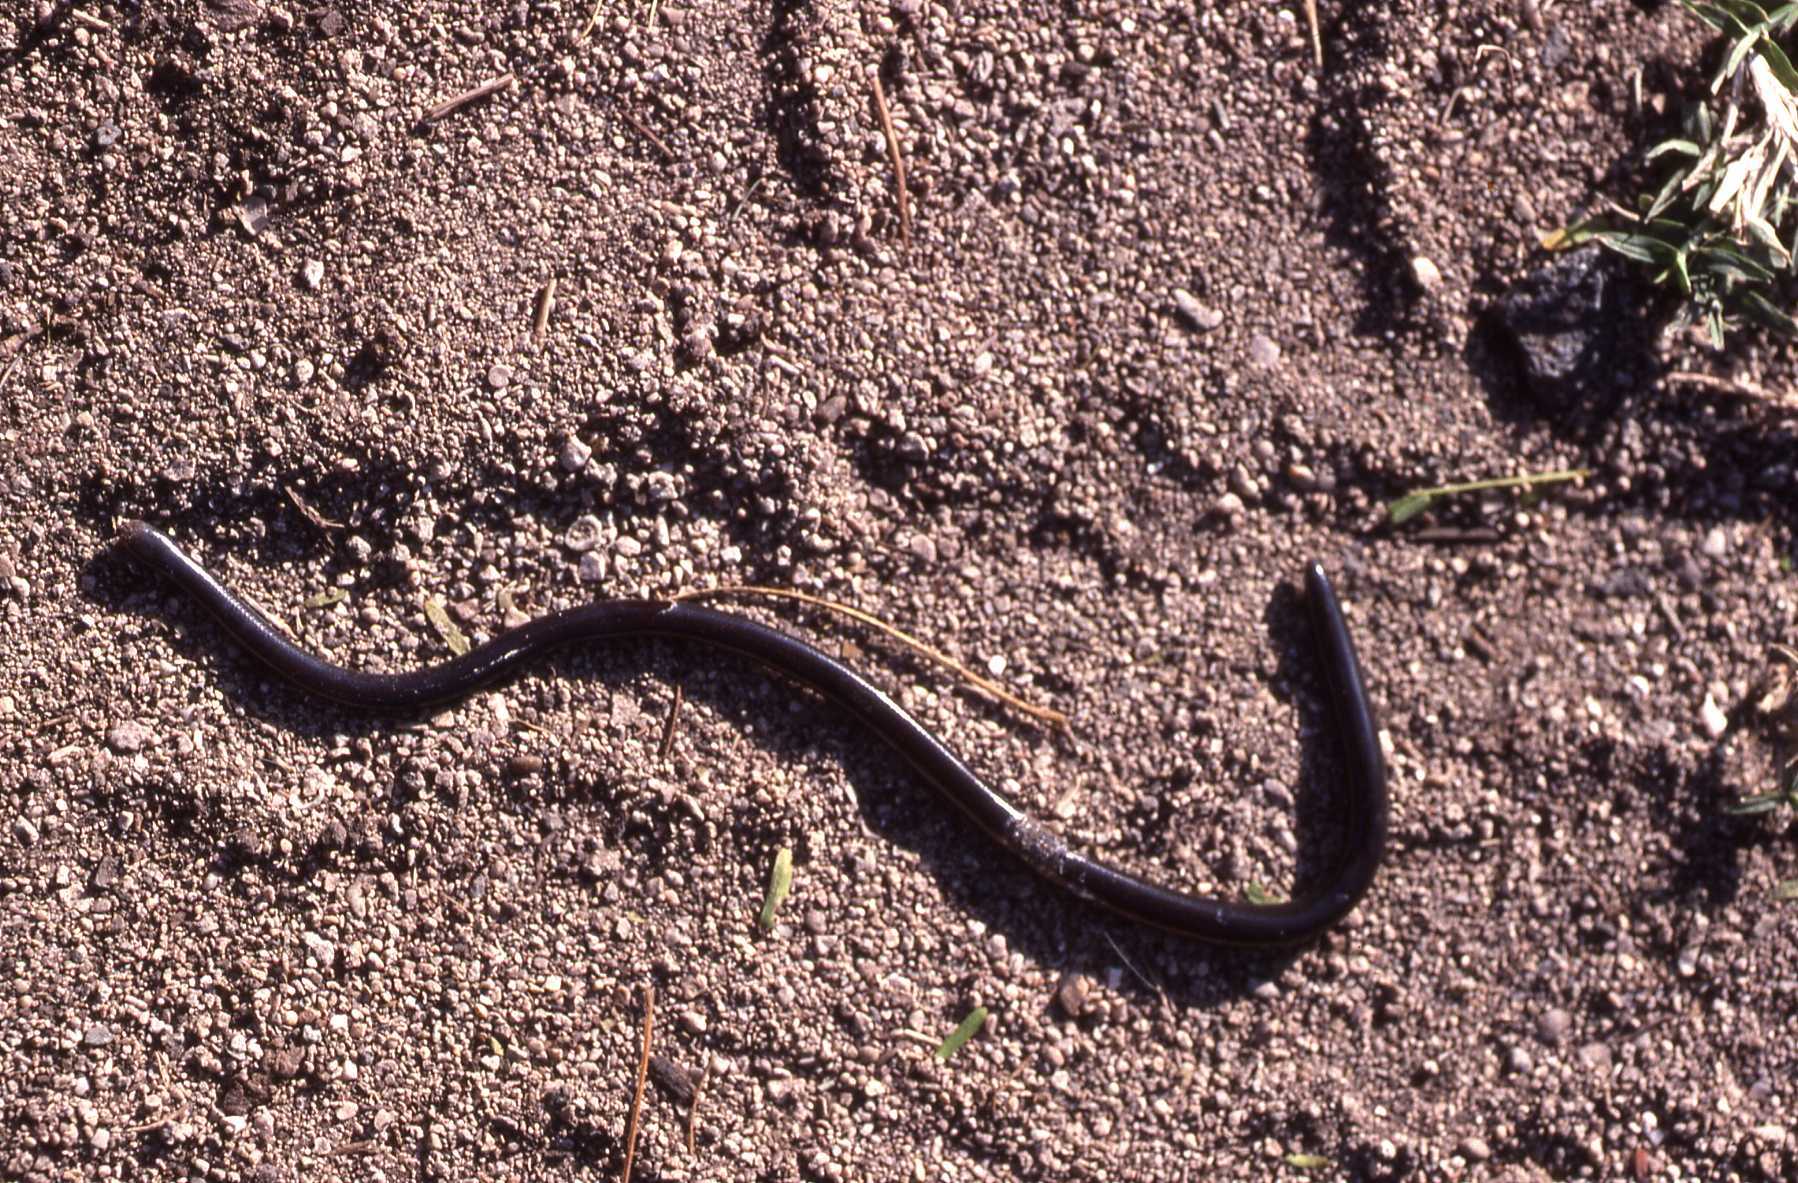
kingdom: Animalia
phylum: Chordata
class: Squamata
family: Typhlopidae
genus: Indotyphlops
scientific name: Indotyphlops braminus
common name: Brahminy blindsnake
